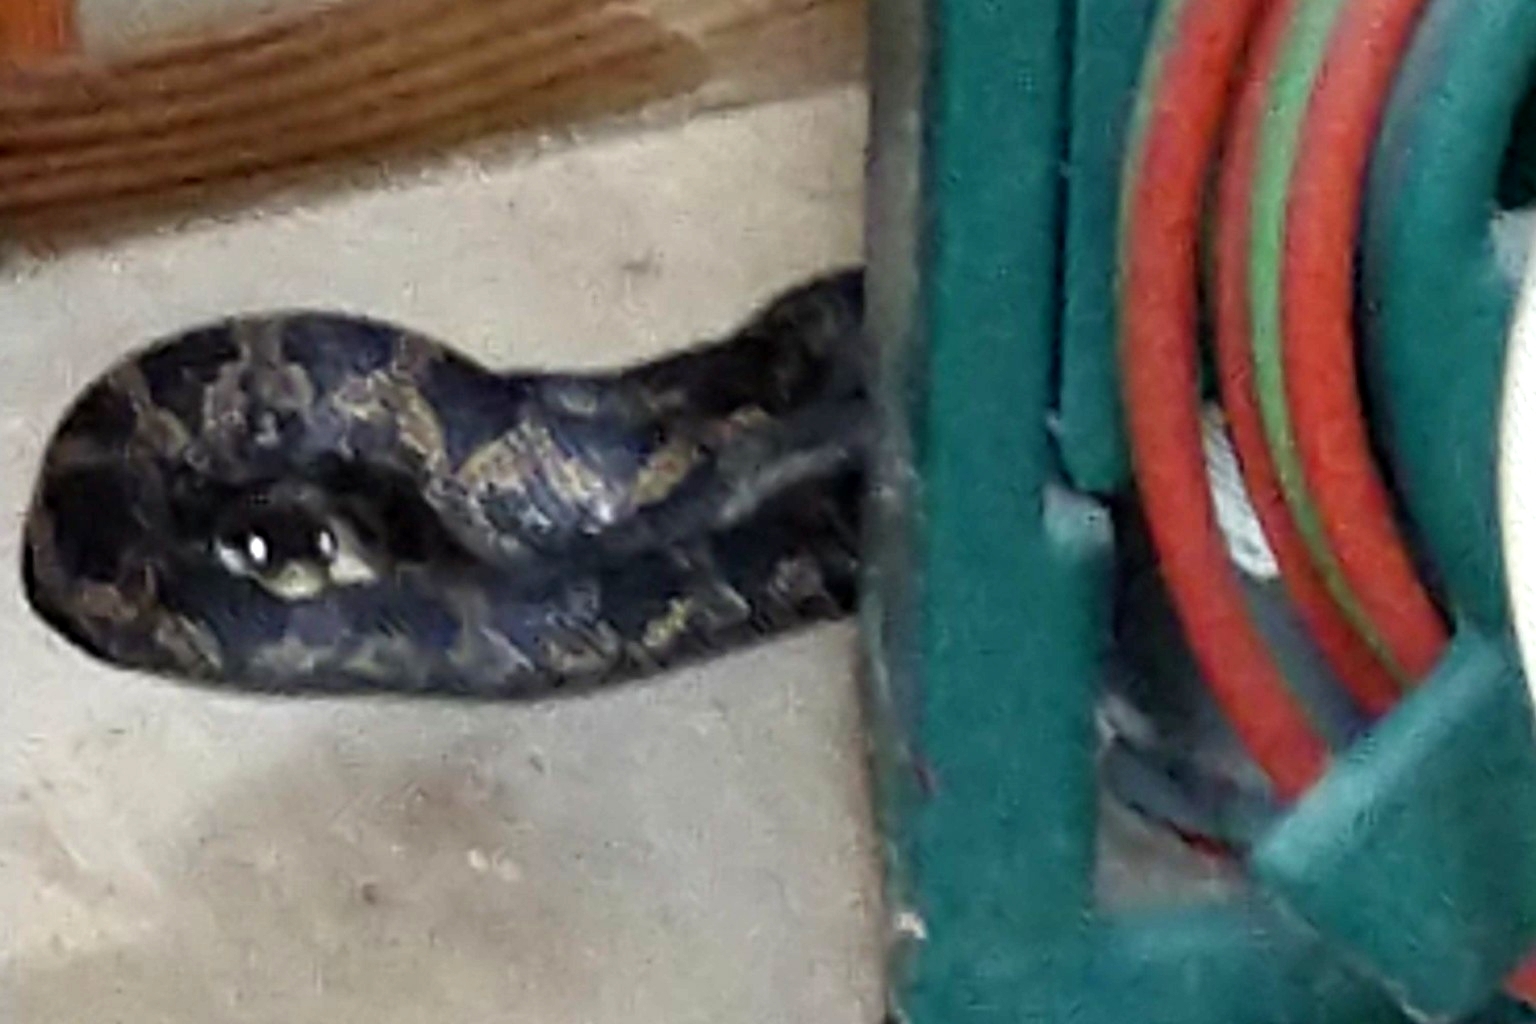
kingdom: Animalia
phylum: Chordata
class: Squamata
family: Colubridae
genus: Pantherophis
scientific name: Pantherophis obsoletus
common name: Black rat snake
